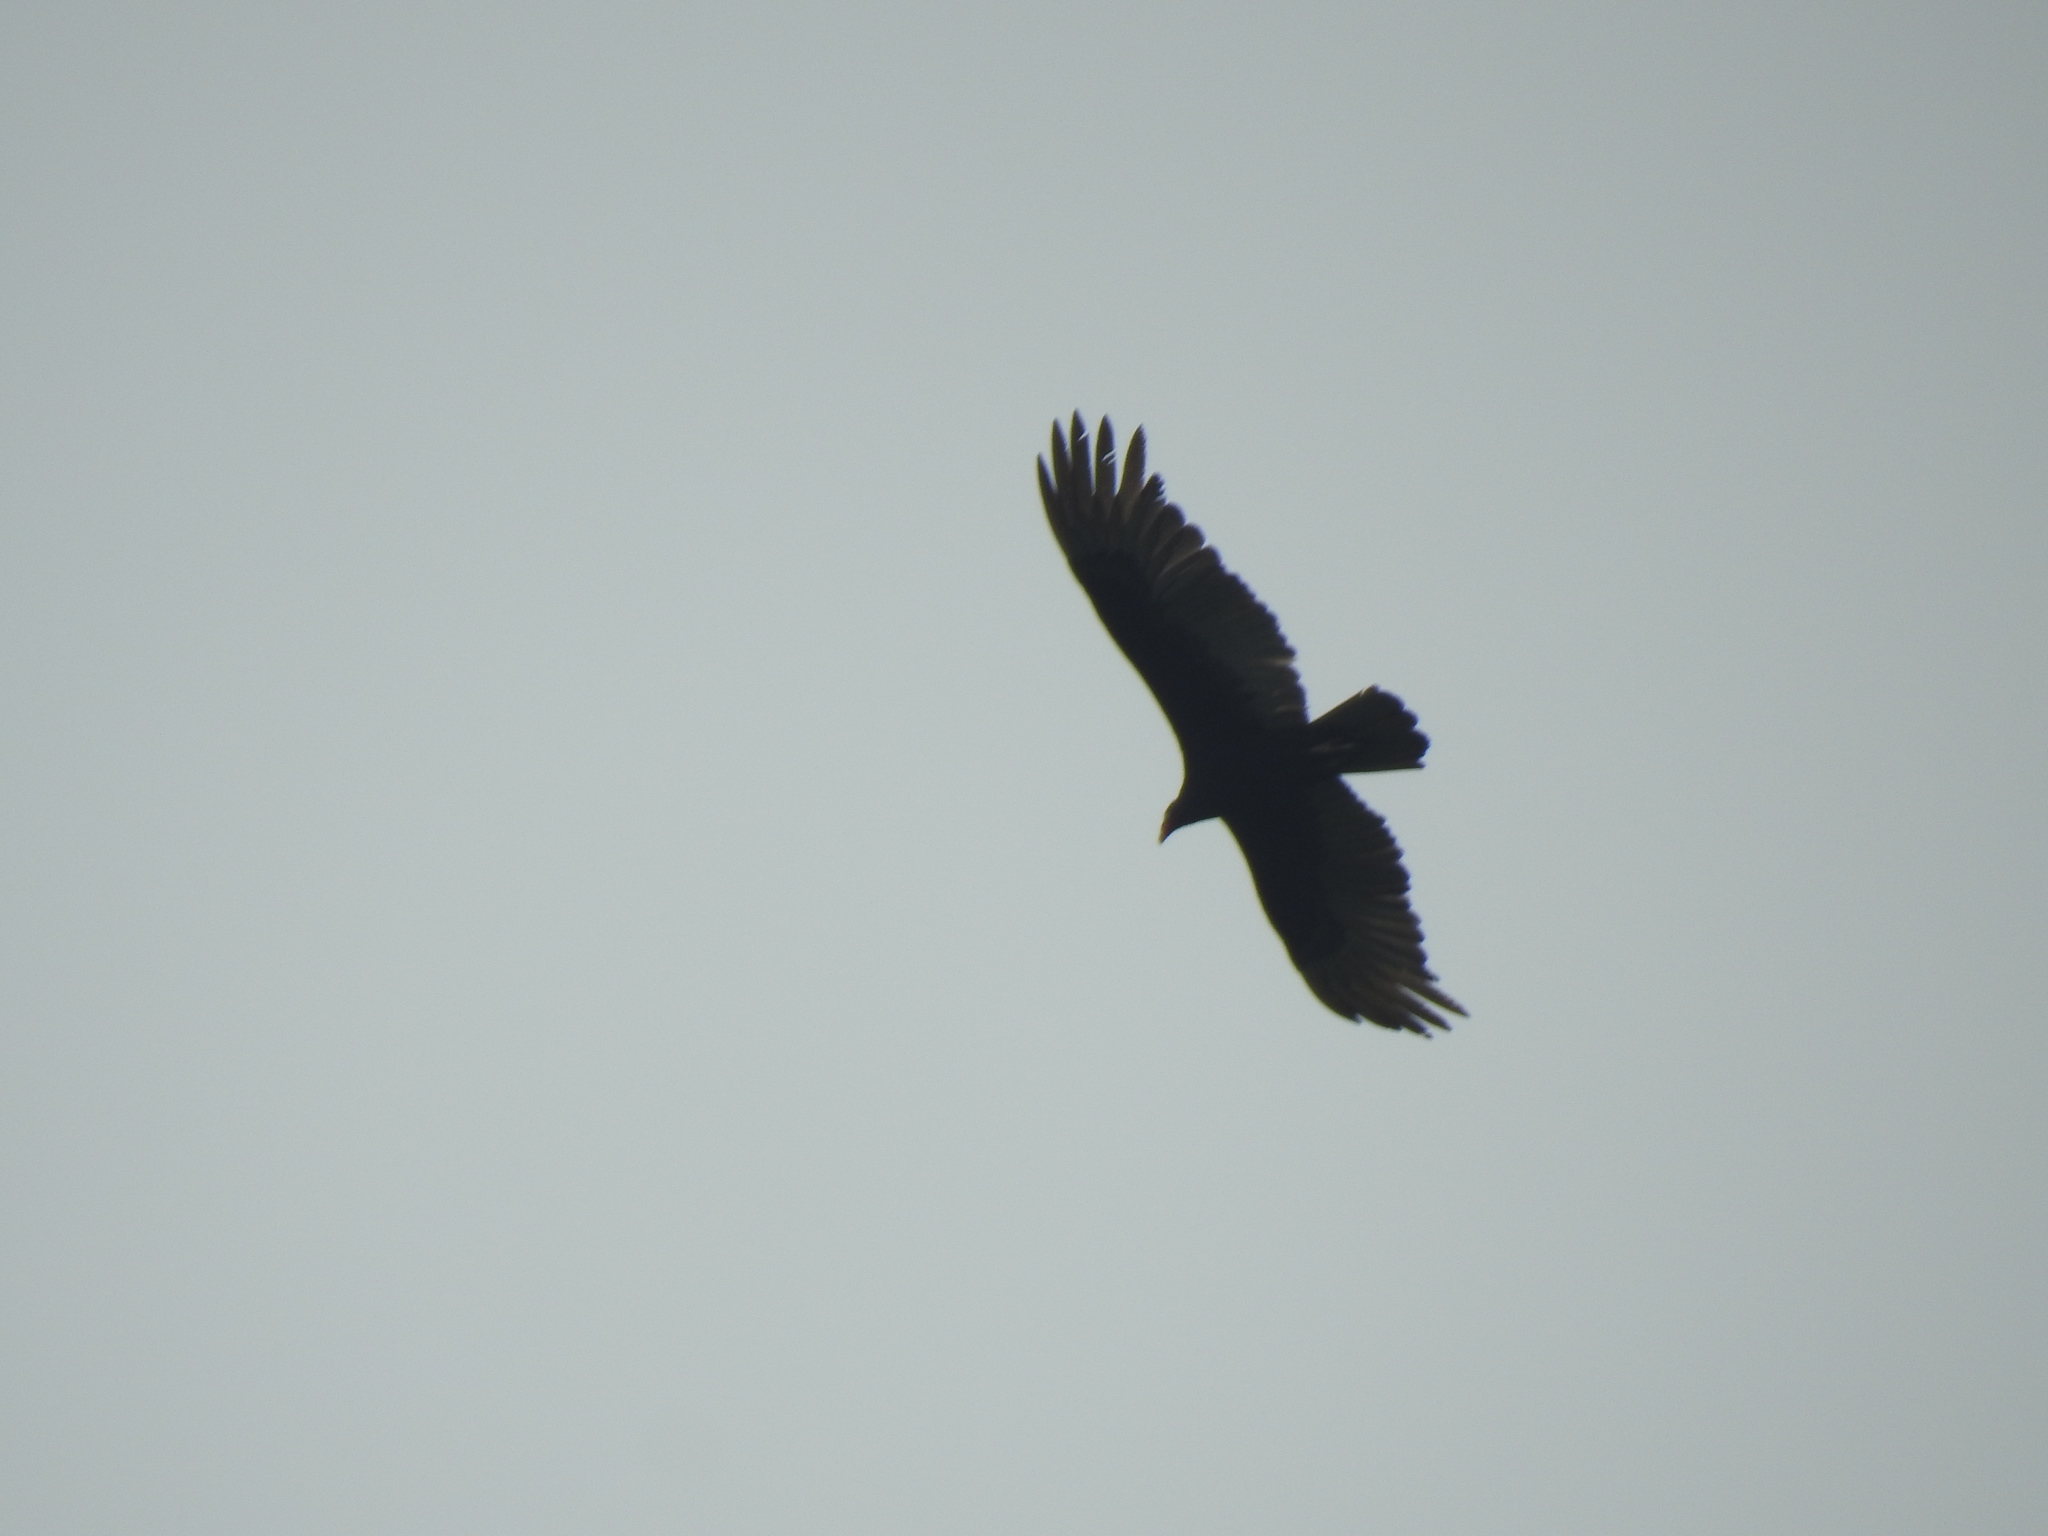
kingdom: Animalia
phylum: Chordata
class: Aves
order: Accipitriformes
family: Cathartidae
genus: Cathartes
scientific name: Cathartes aura
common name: Turkey vulture
